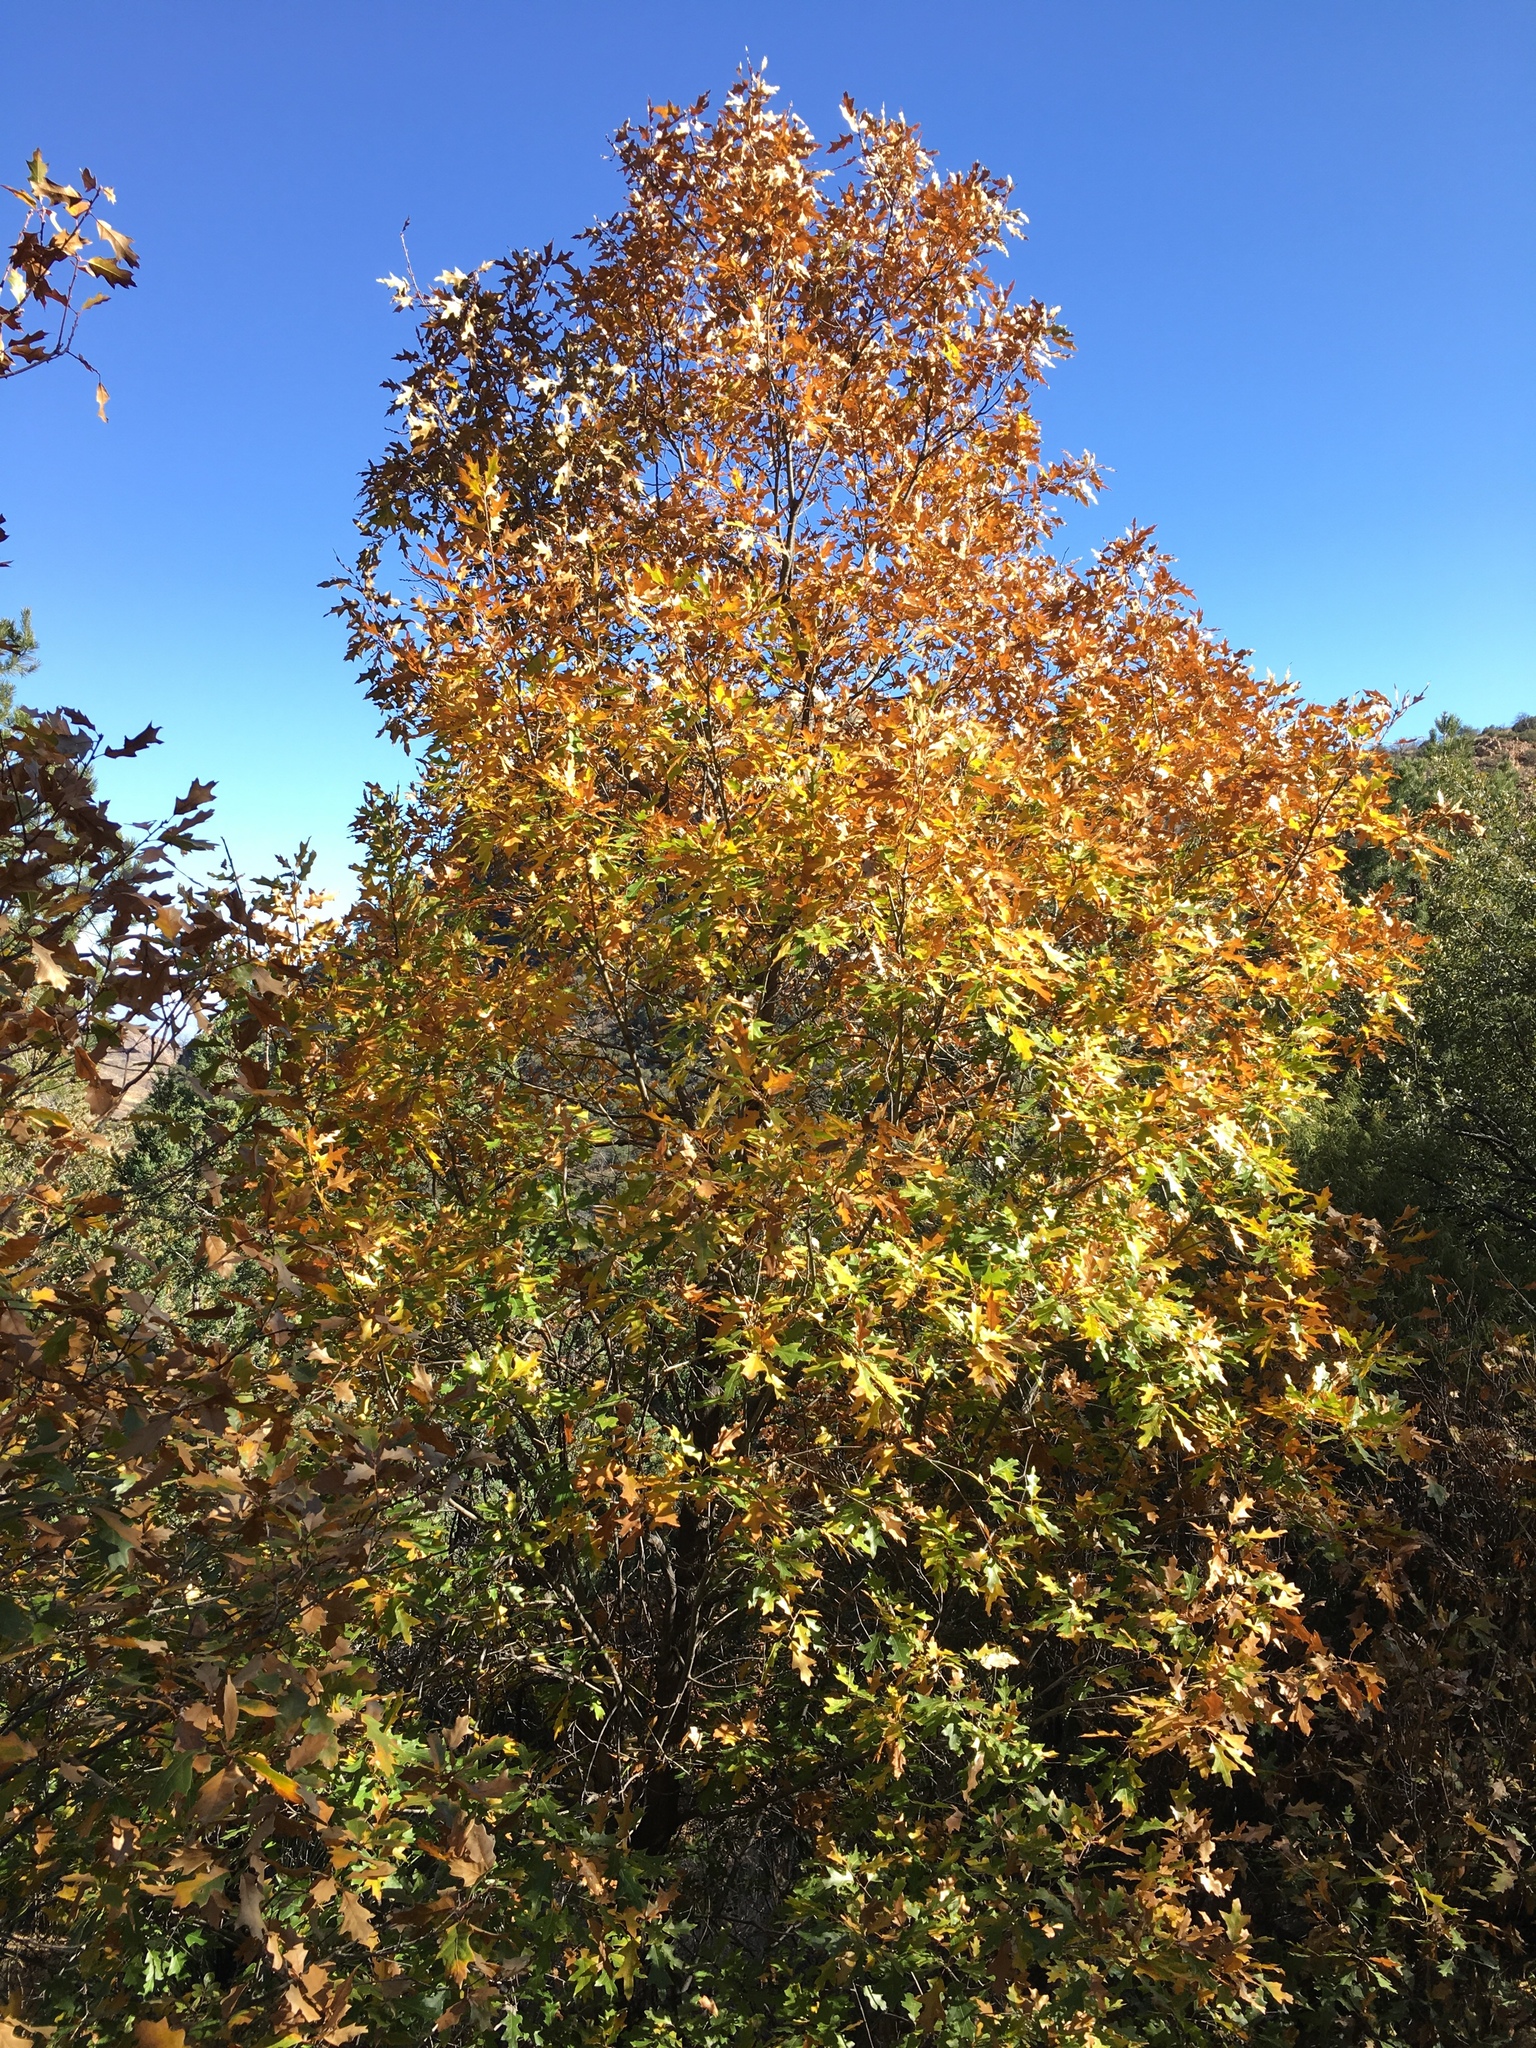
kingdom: Plantae
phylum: Tracheophyta
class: Magnoliopsida
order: Fagales
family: Fagaceae
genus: Quercus
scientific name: Quercus gravesii
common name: Chisos red oak
